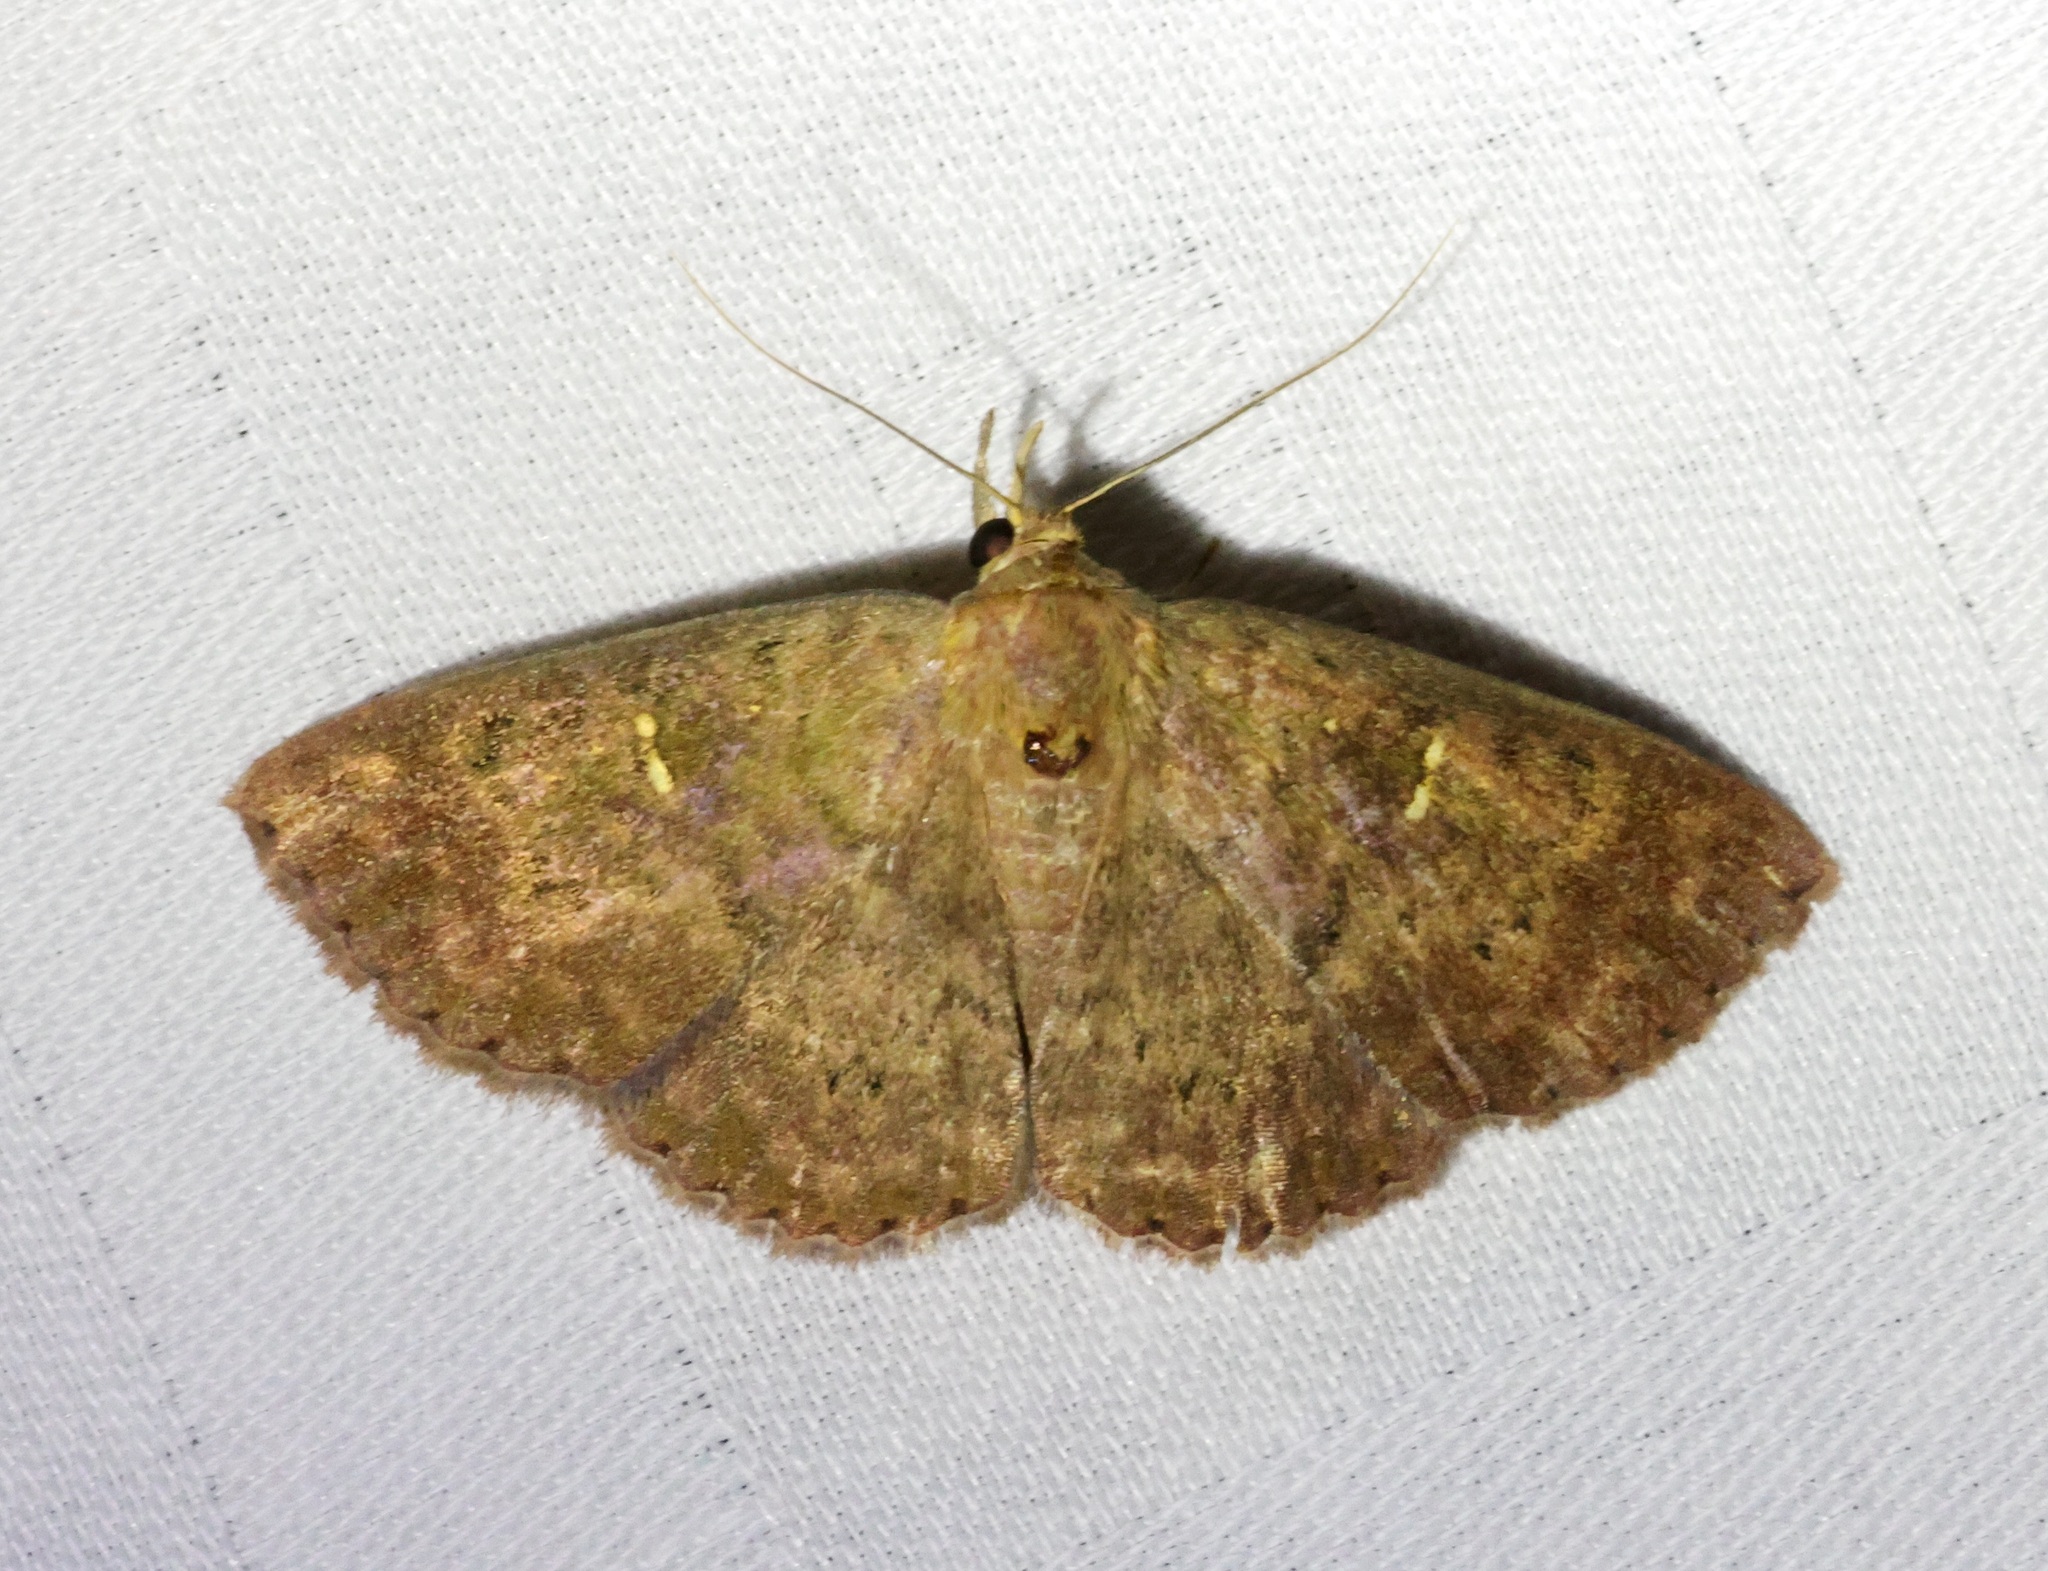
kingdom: Animalia
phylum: Arthropoda
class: Insecta
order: Lepidoptera
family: Erebidae
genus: Sarobides
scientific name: Sarobides inconclusa
